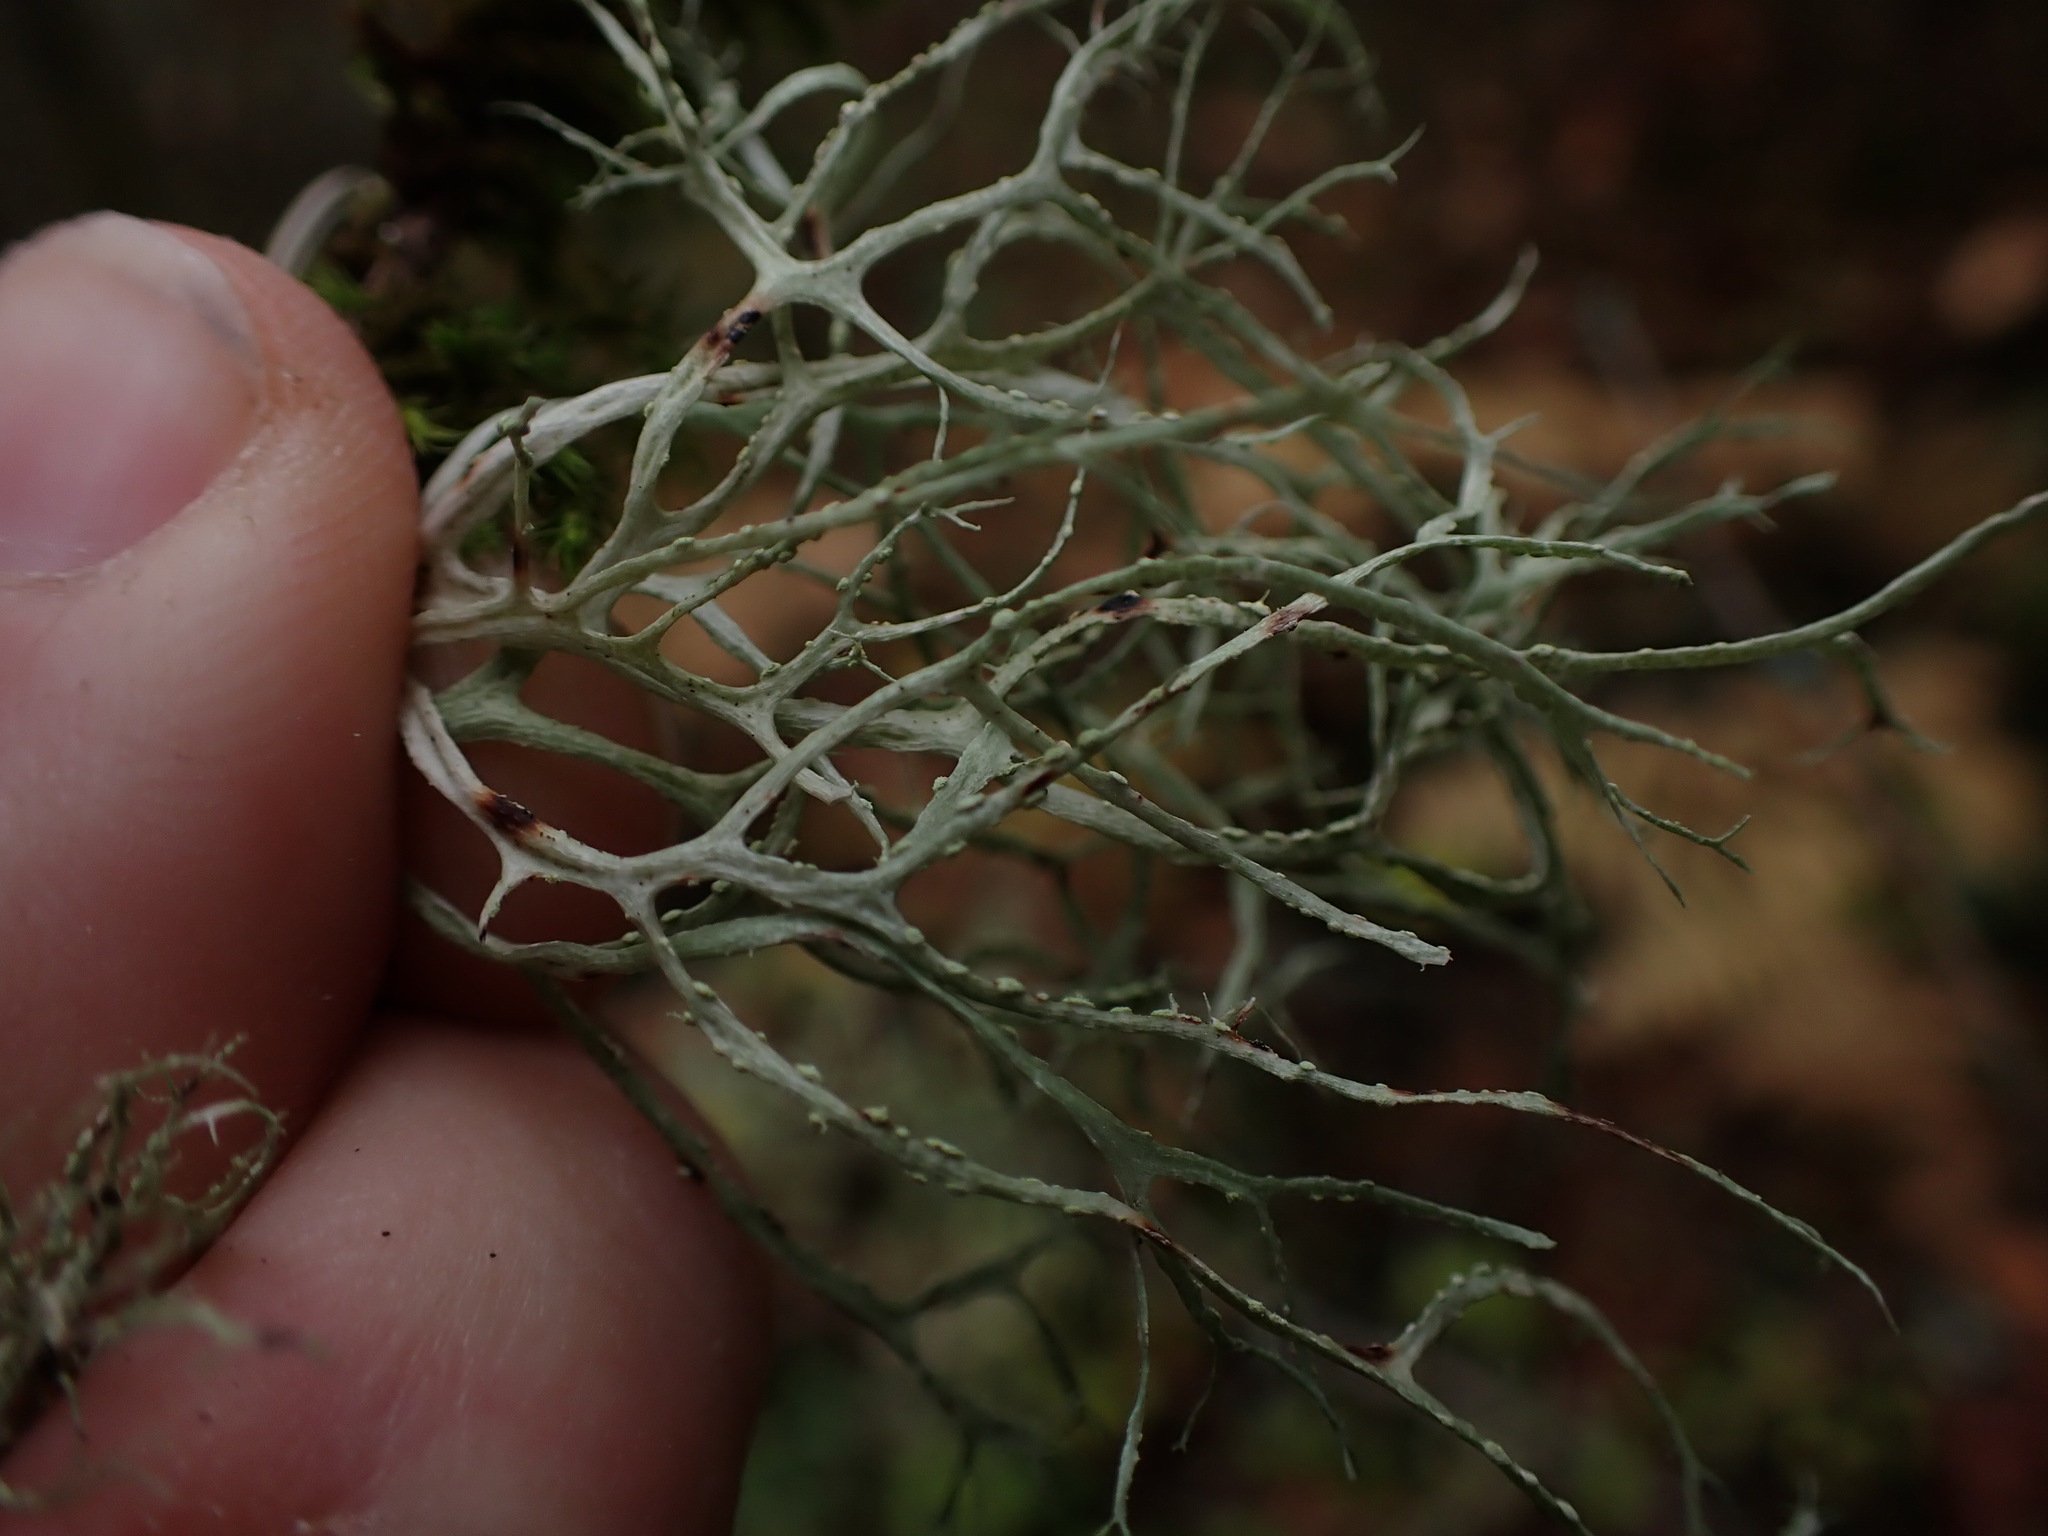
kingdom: Fungi
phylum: Ascomycota
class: Lecanoromycetes
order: Lecanorales
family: Ramalinaceae
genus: Ramalina
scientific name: Ramalina farinacea
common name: Farinose cartilage lichen
